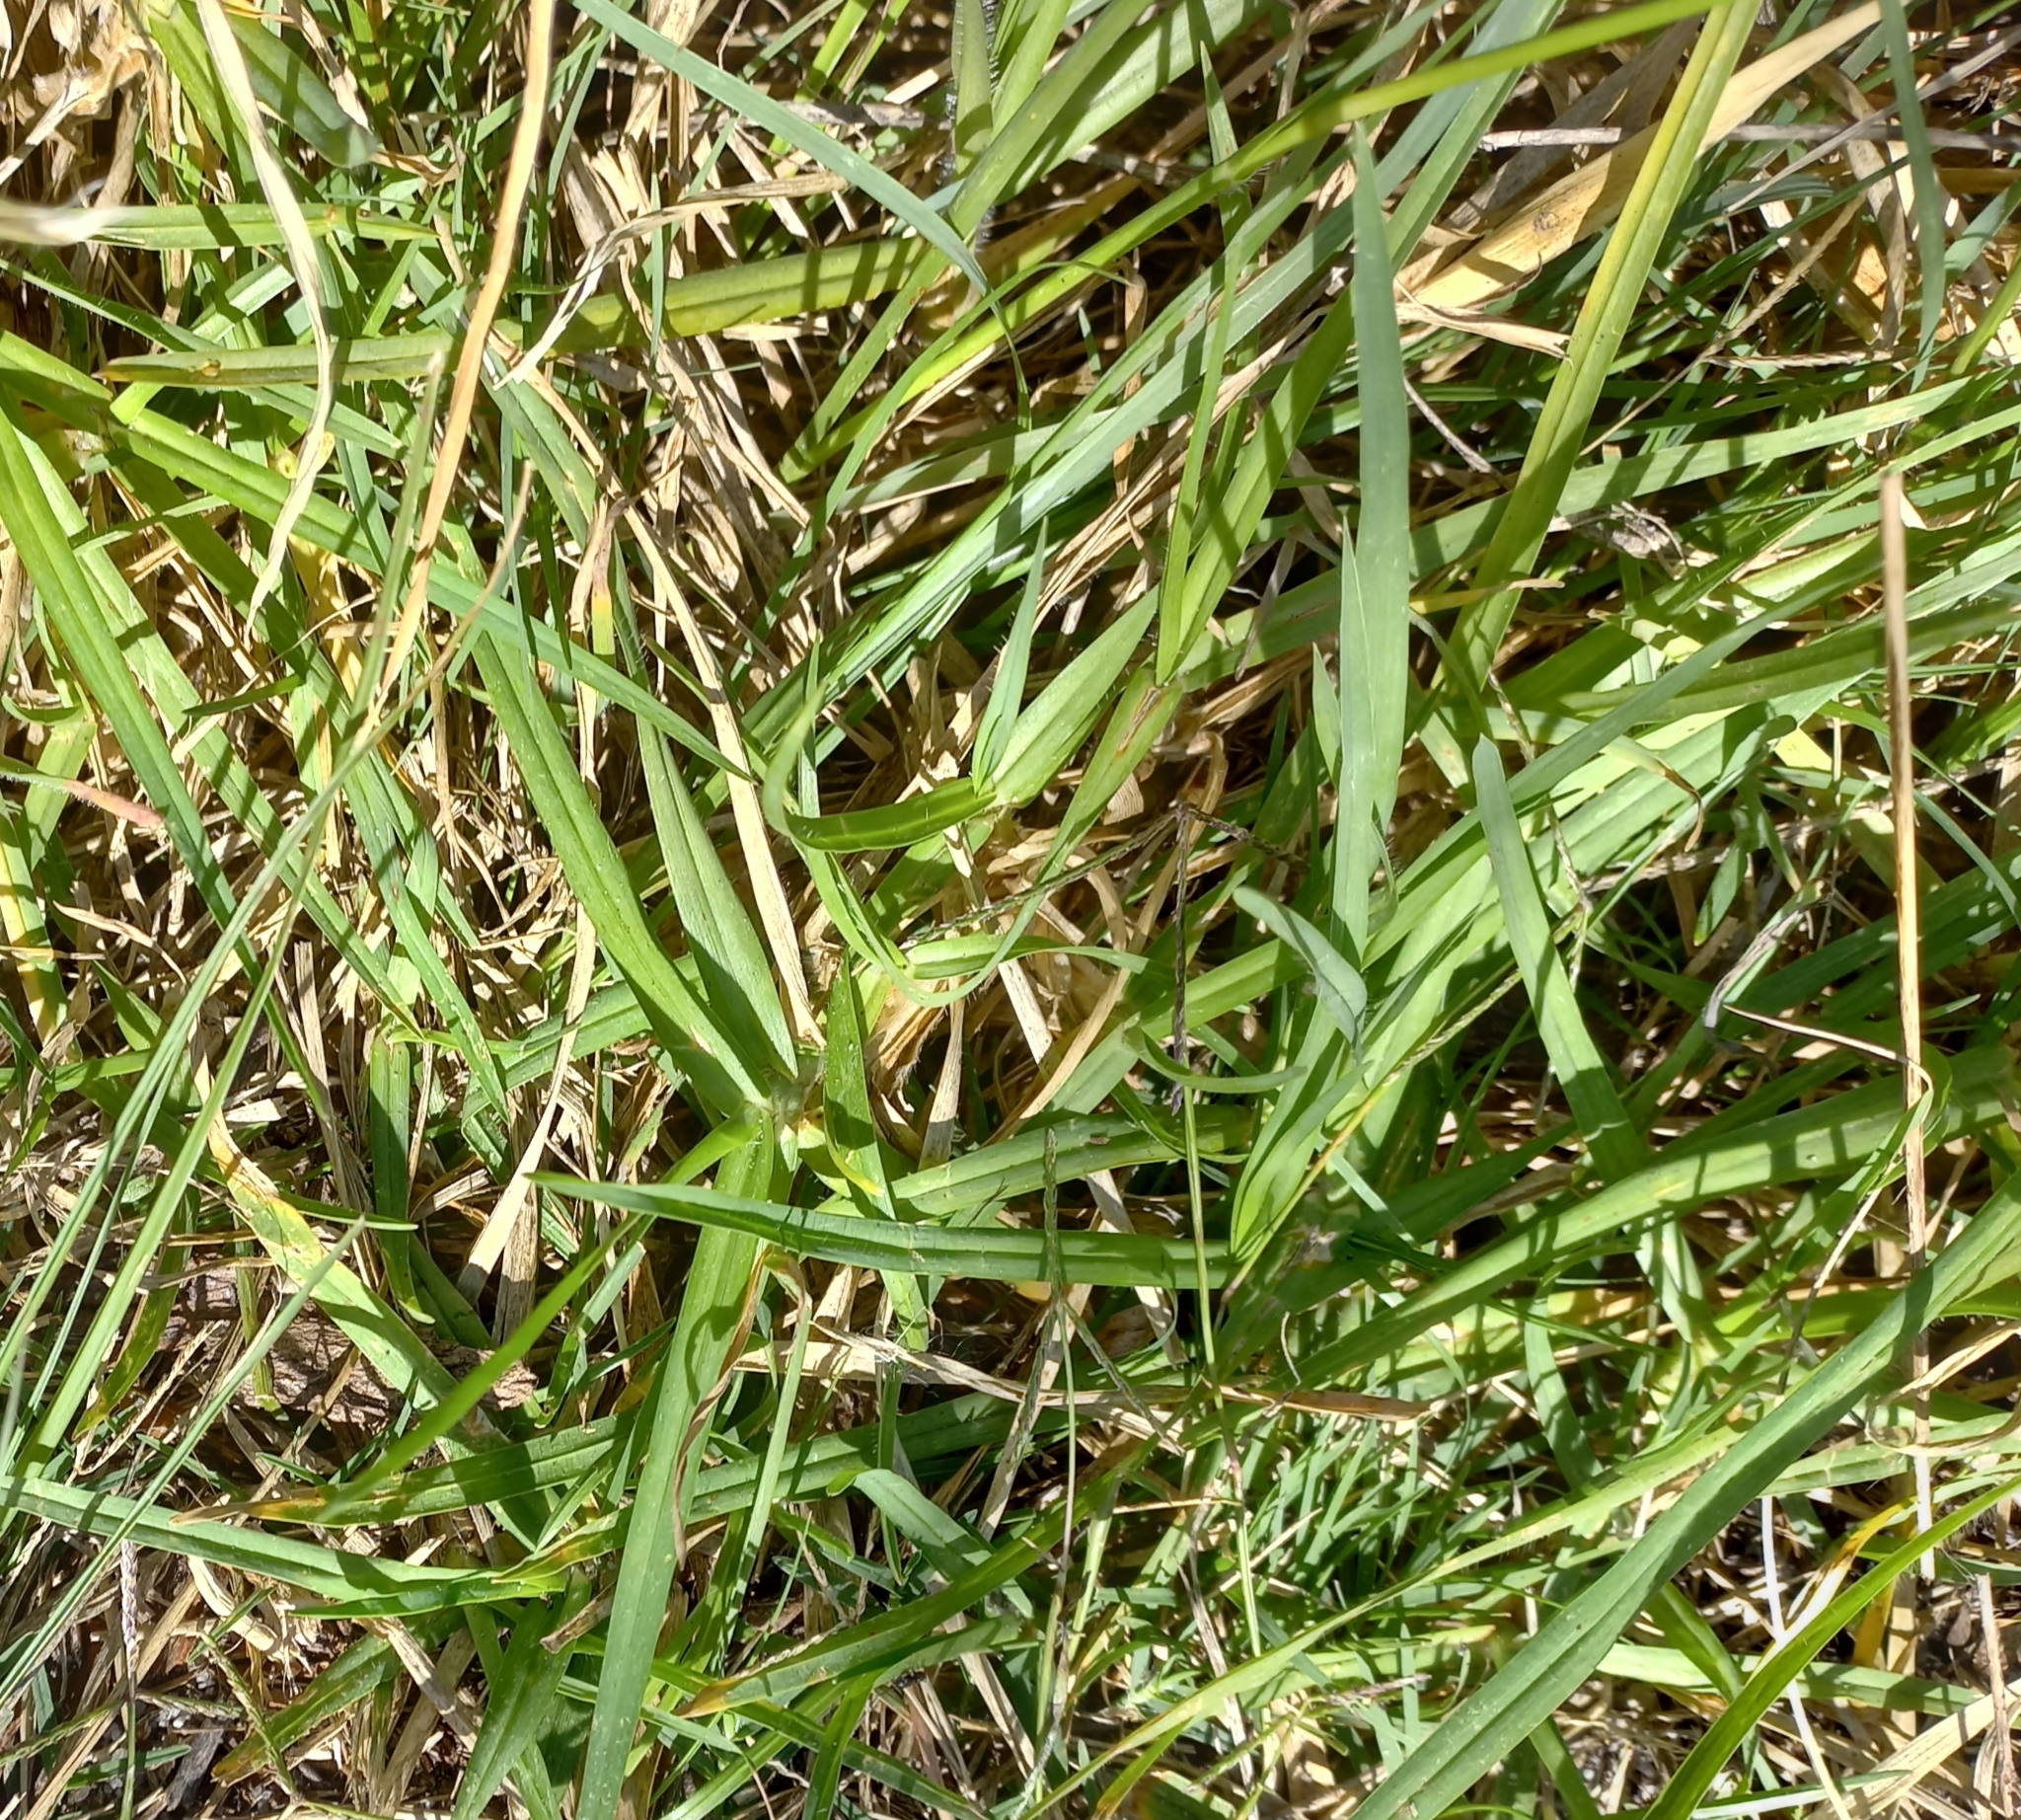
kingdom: Plantae
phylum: Tracheophyta
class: Liliopsida
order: Poales
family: Poaceae
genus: Cenchrus
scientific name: Cenchrus clandestinus
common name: Kikuyugrass
